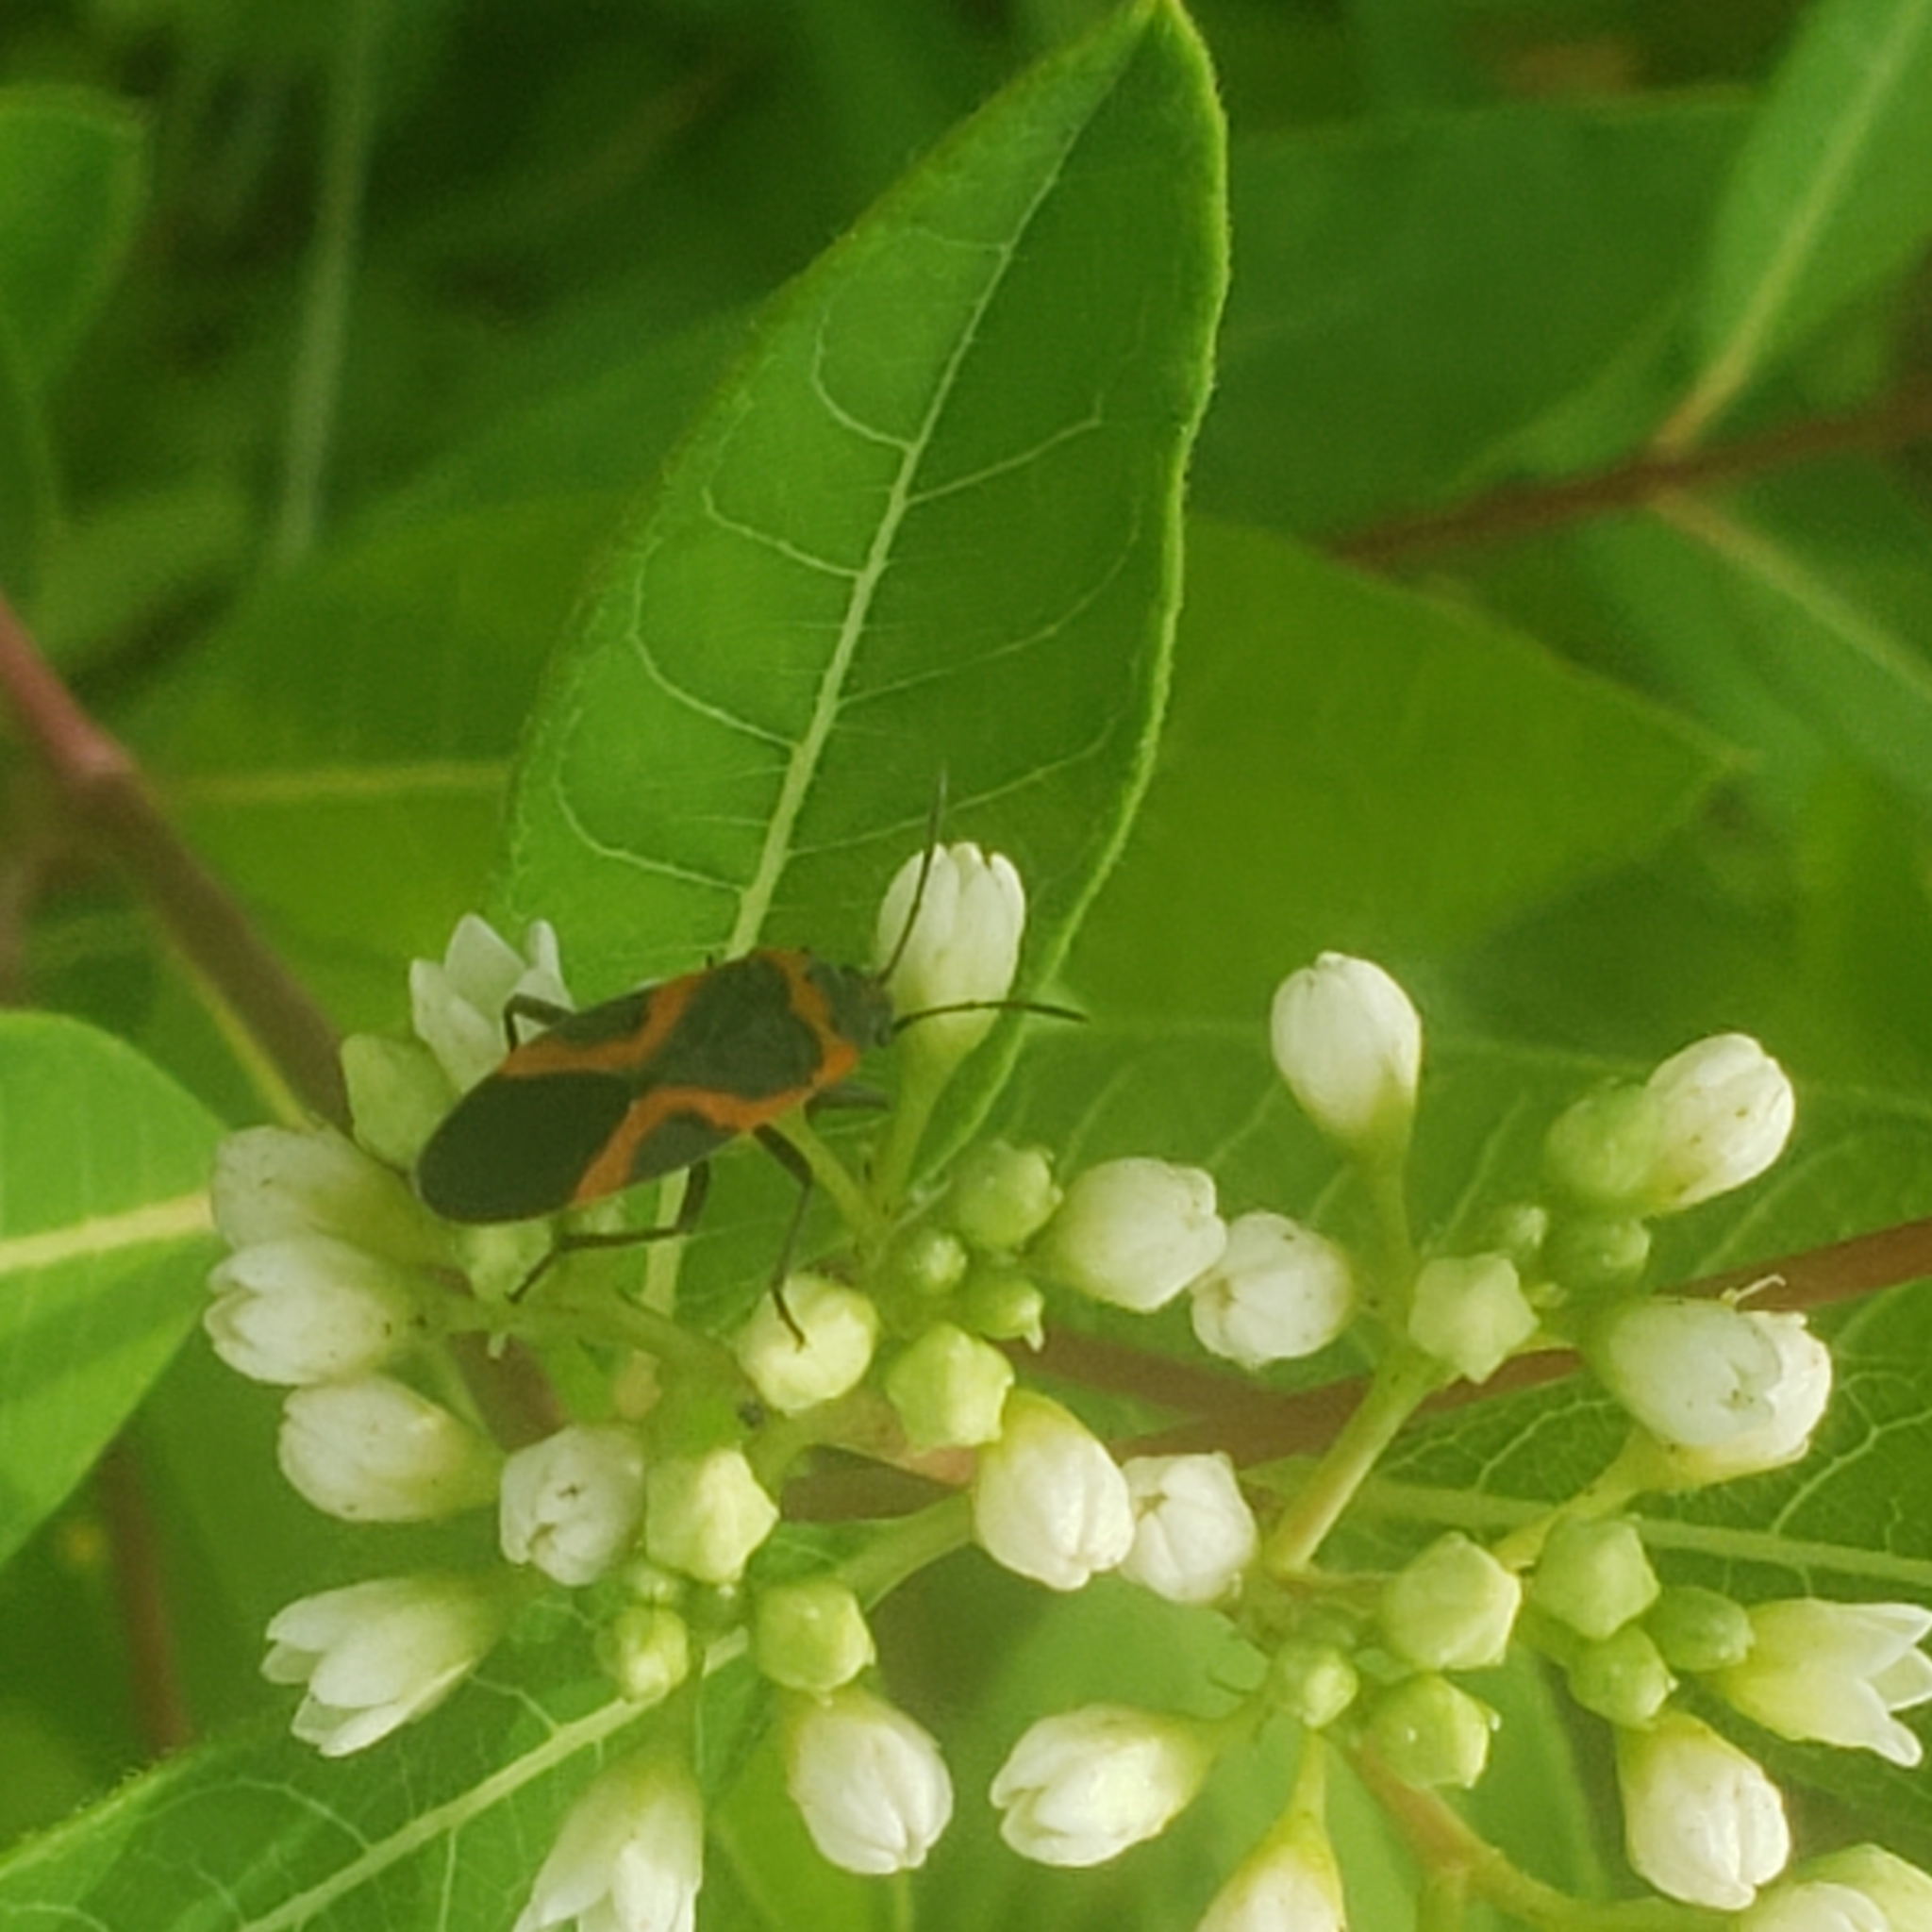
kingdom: Animalia
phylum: Arthropoda
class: Insecta
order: Hemiptera
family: Lygaeidae
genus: Lygaeus
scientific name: Lygaeus kalmii
